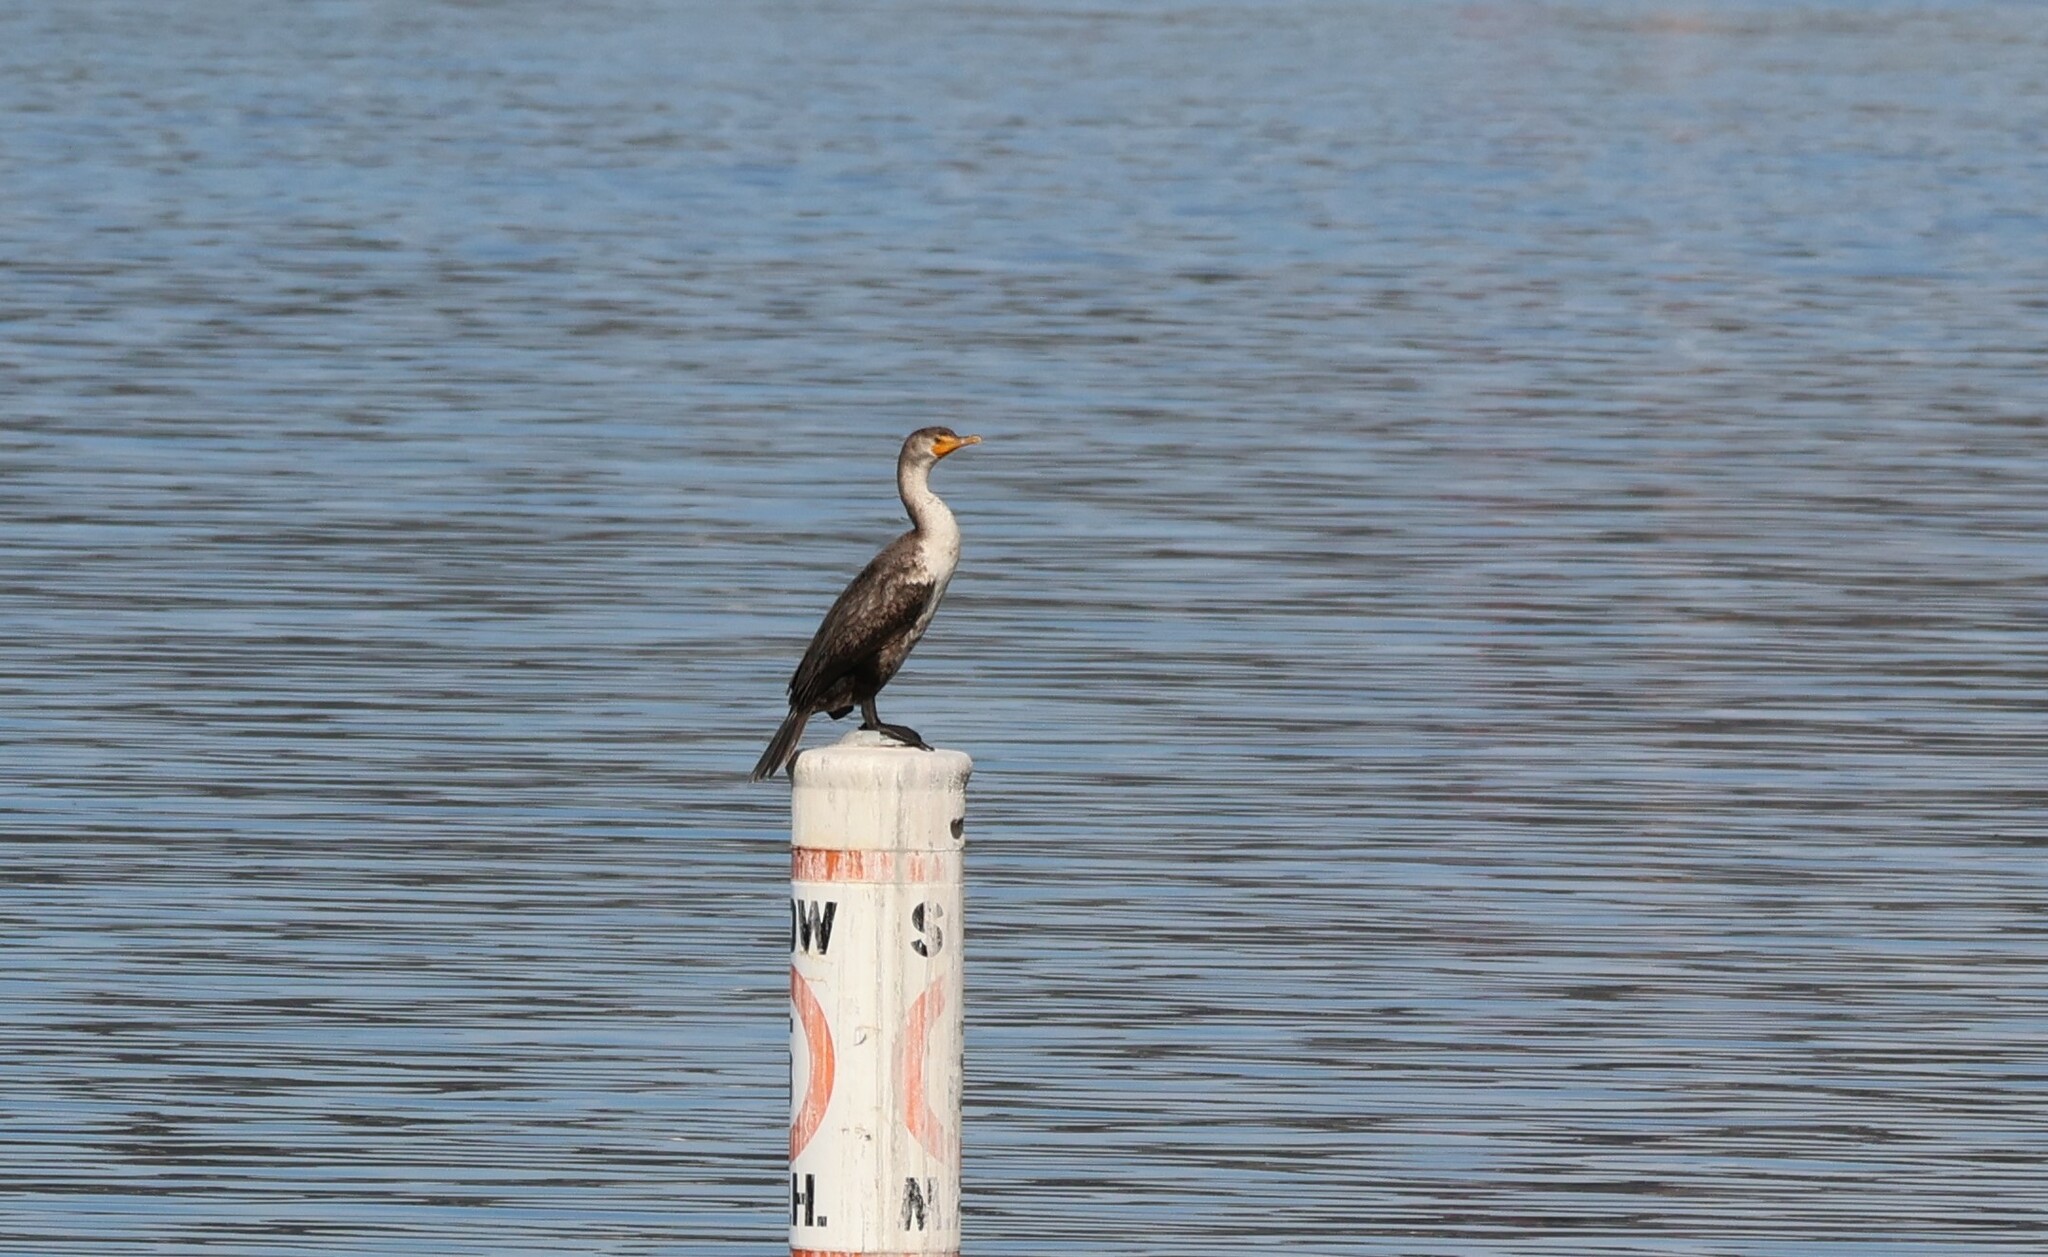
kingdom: Animalia
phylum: Chordata
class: Aves
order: Suliformes
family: Phalacrocoracidae
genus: Phalacrocorax
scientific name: Phalacrocorax auritus
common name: Double-crested cormorant
